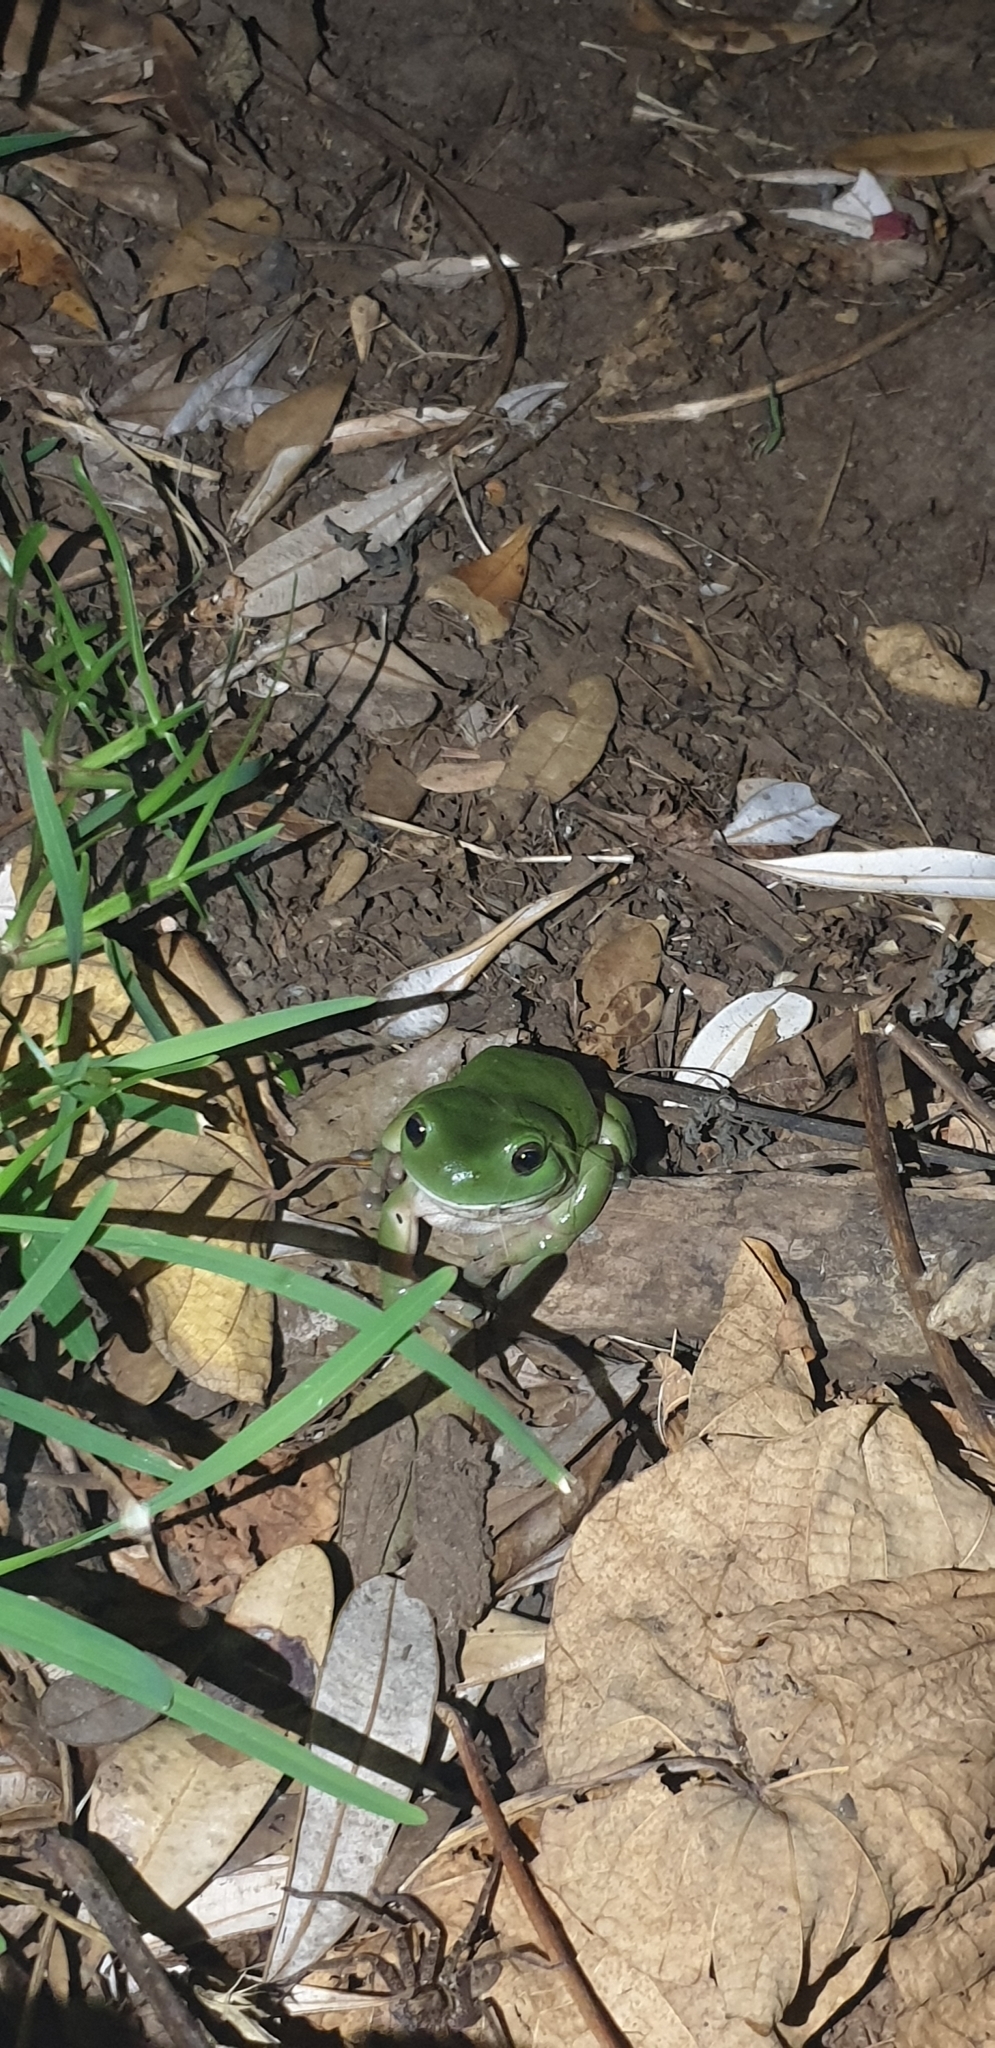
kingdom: Animalia
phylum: Chordata
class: Amphibia
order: Anura
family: Pelodryadidae
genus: Ranoidea
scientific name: Ranoidea caerulea
